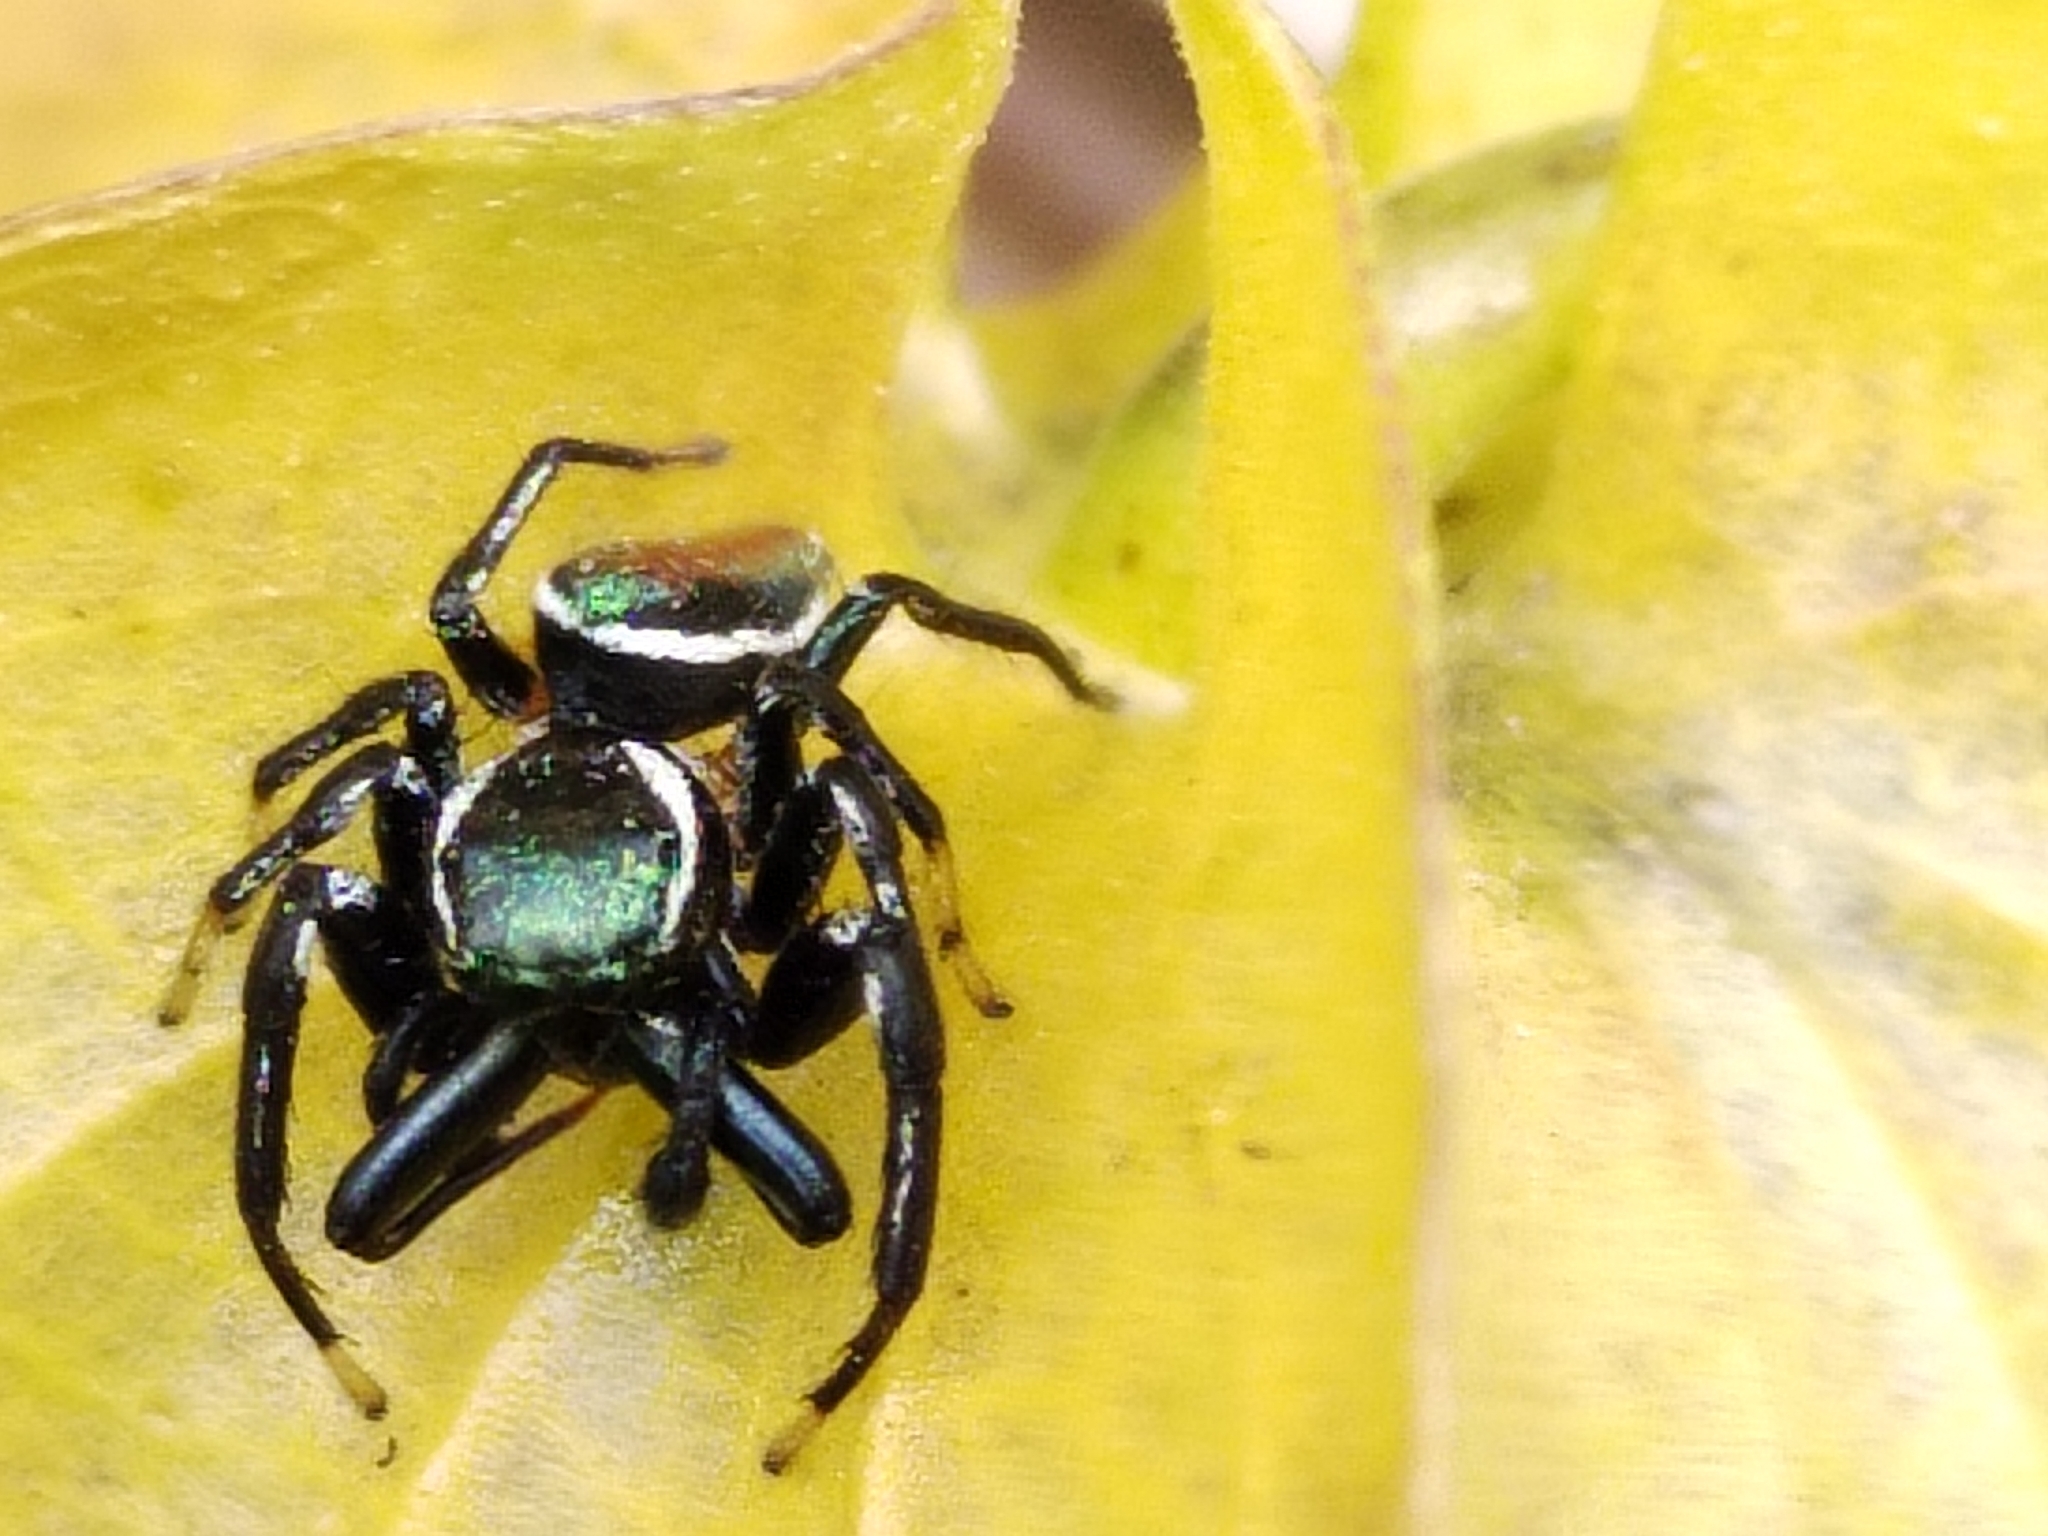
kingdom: Animalia
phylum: Arthropoda
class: Arachnida
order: Araneae
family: Salticidae
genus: Messua
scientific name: Messua limbata
